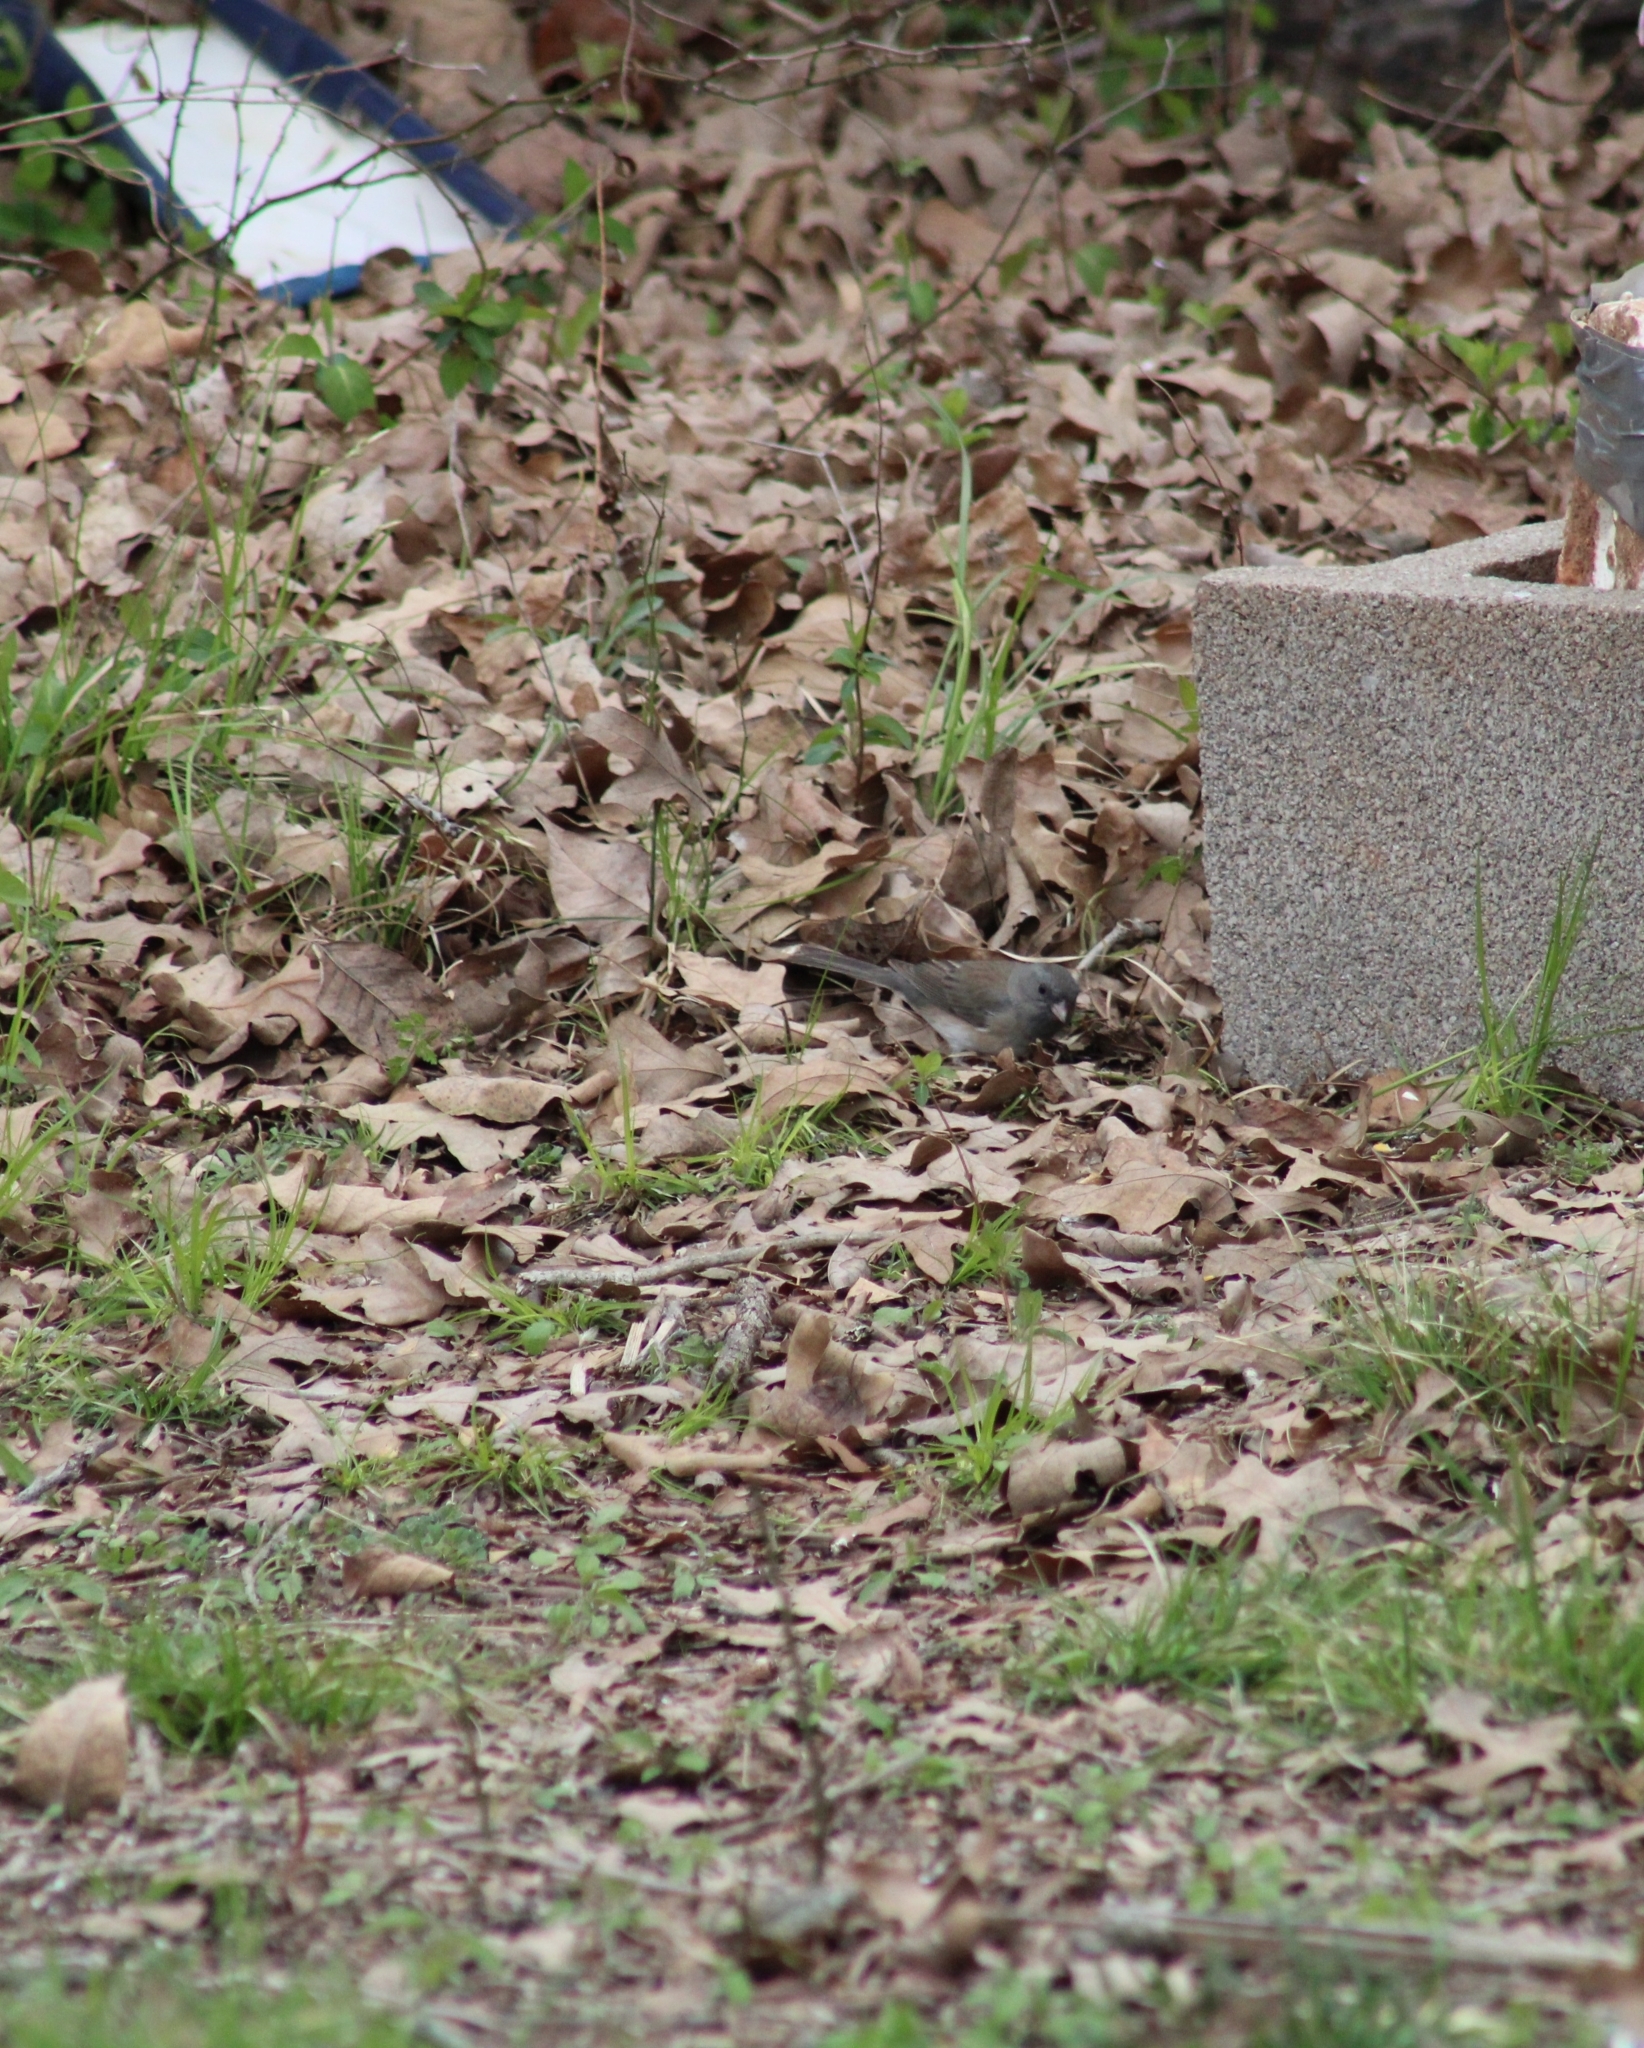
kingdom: Animalia
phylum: Chordata
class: Aves
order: Passeriformes
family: Passerellidae
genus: Junco
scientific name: Junco hyemalis
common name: Dark-eyed junco
